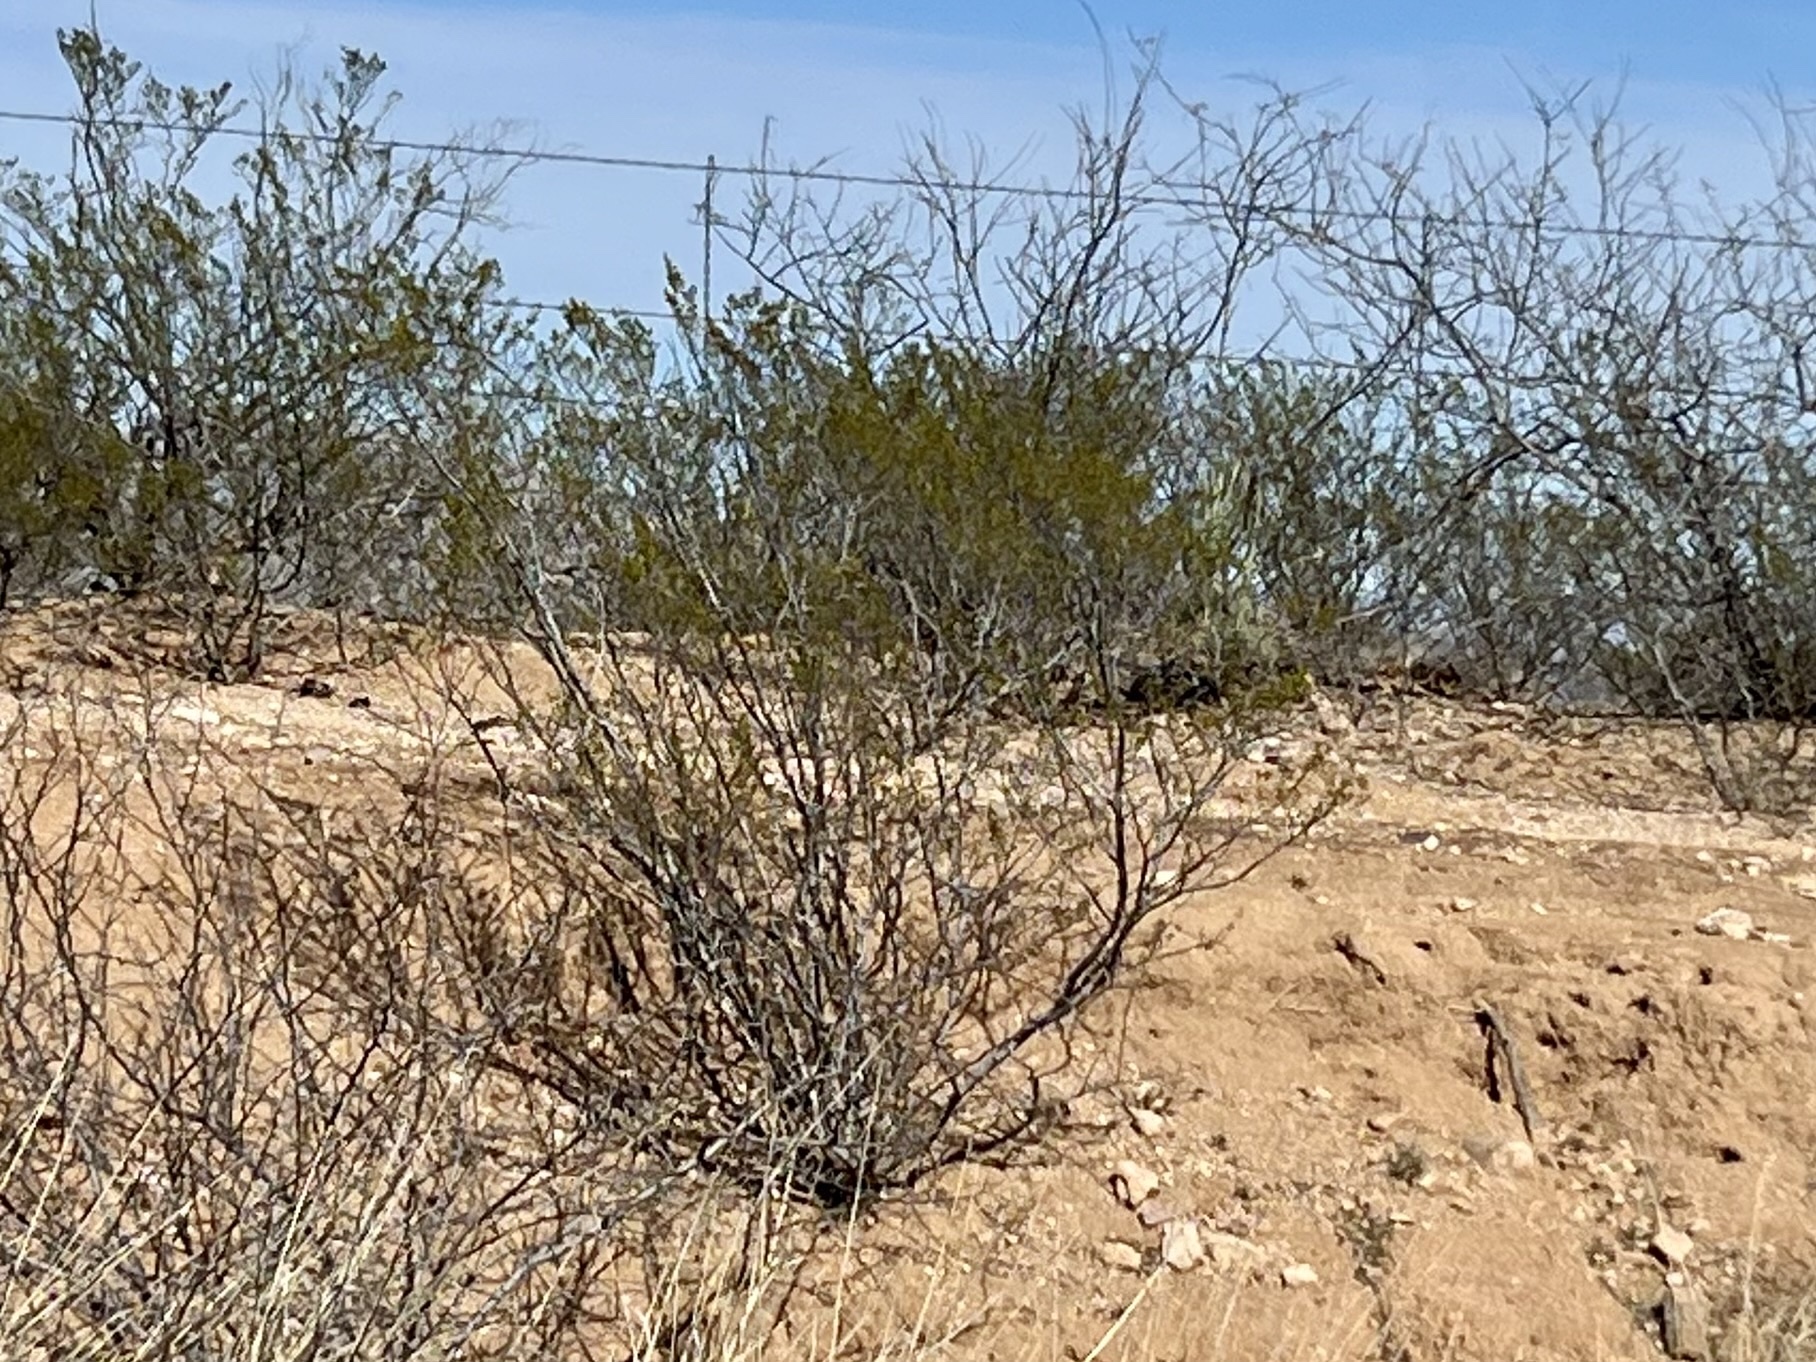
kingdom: Plantae
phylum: Tracheophyta
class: Magnoliopsida
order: Zygophyllales
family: Zygophyllaceae
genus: Larrea
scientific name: Larrea tridentata
